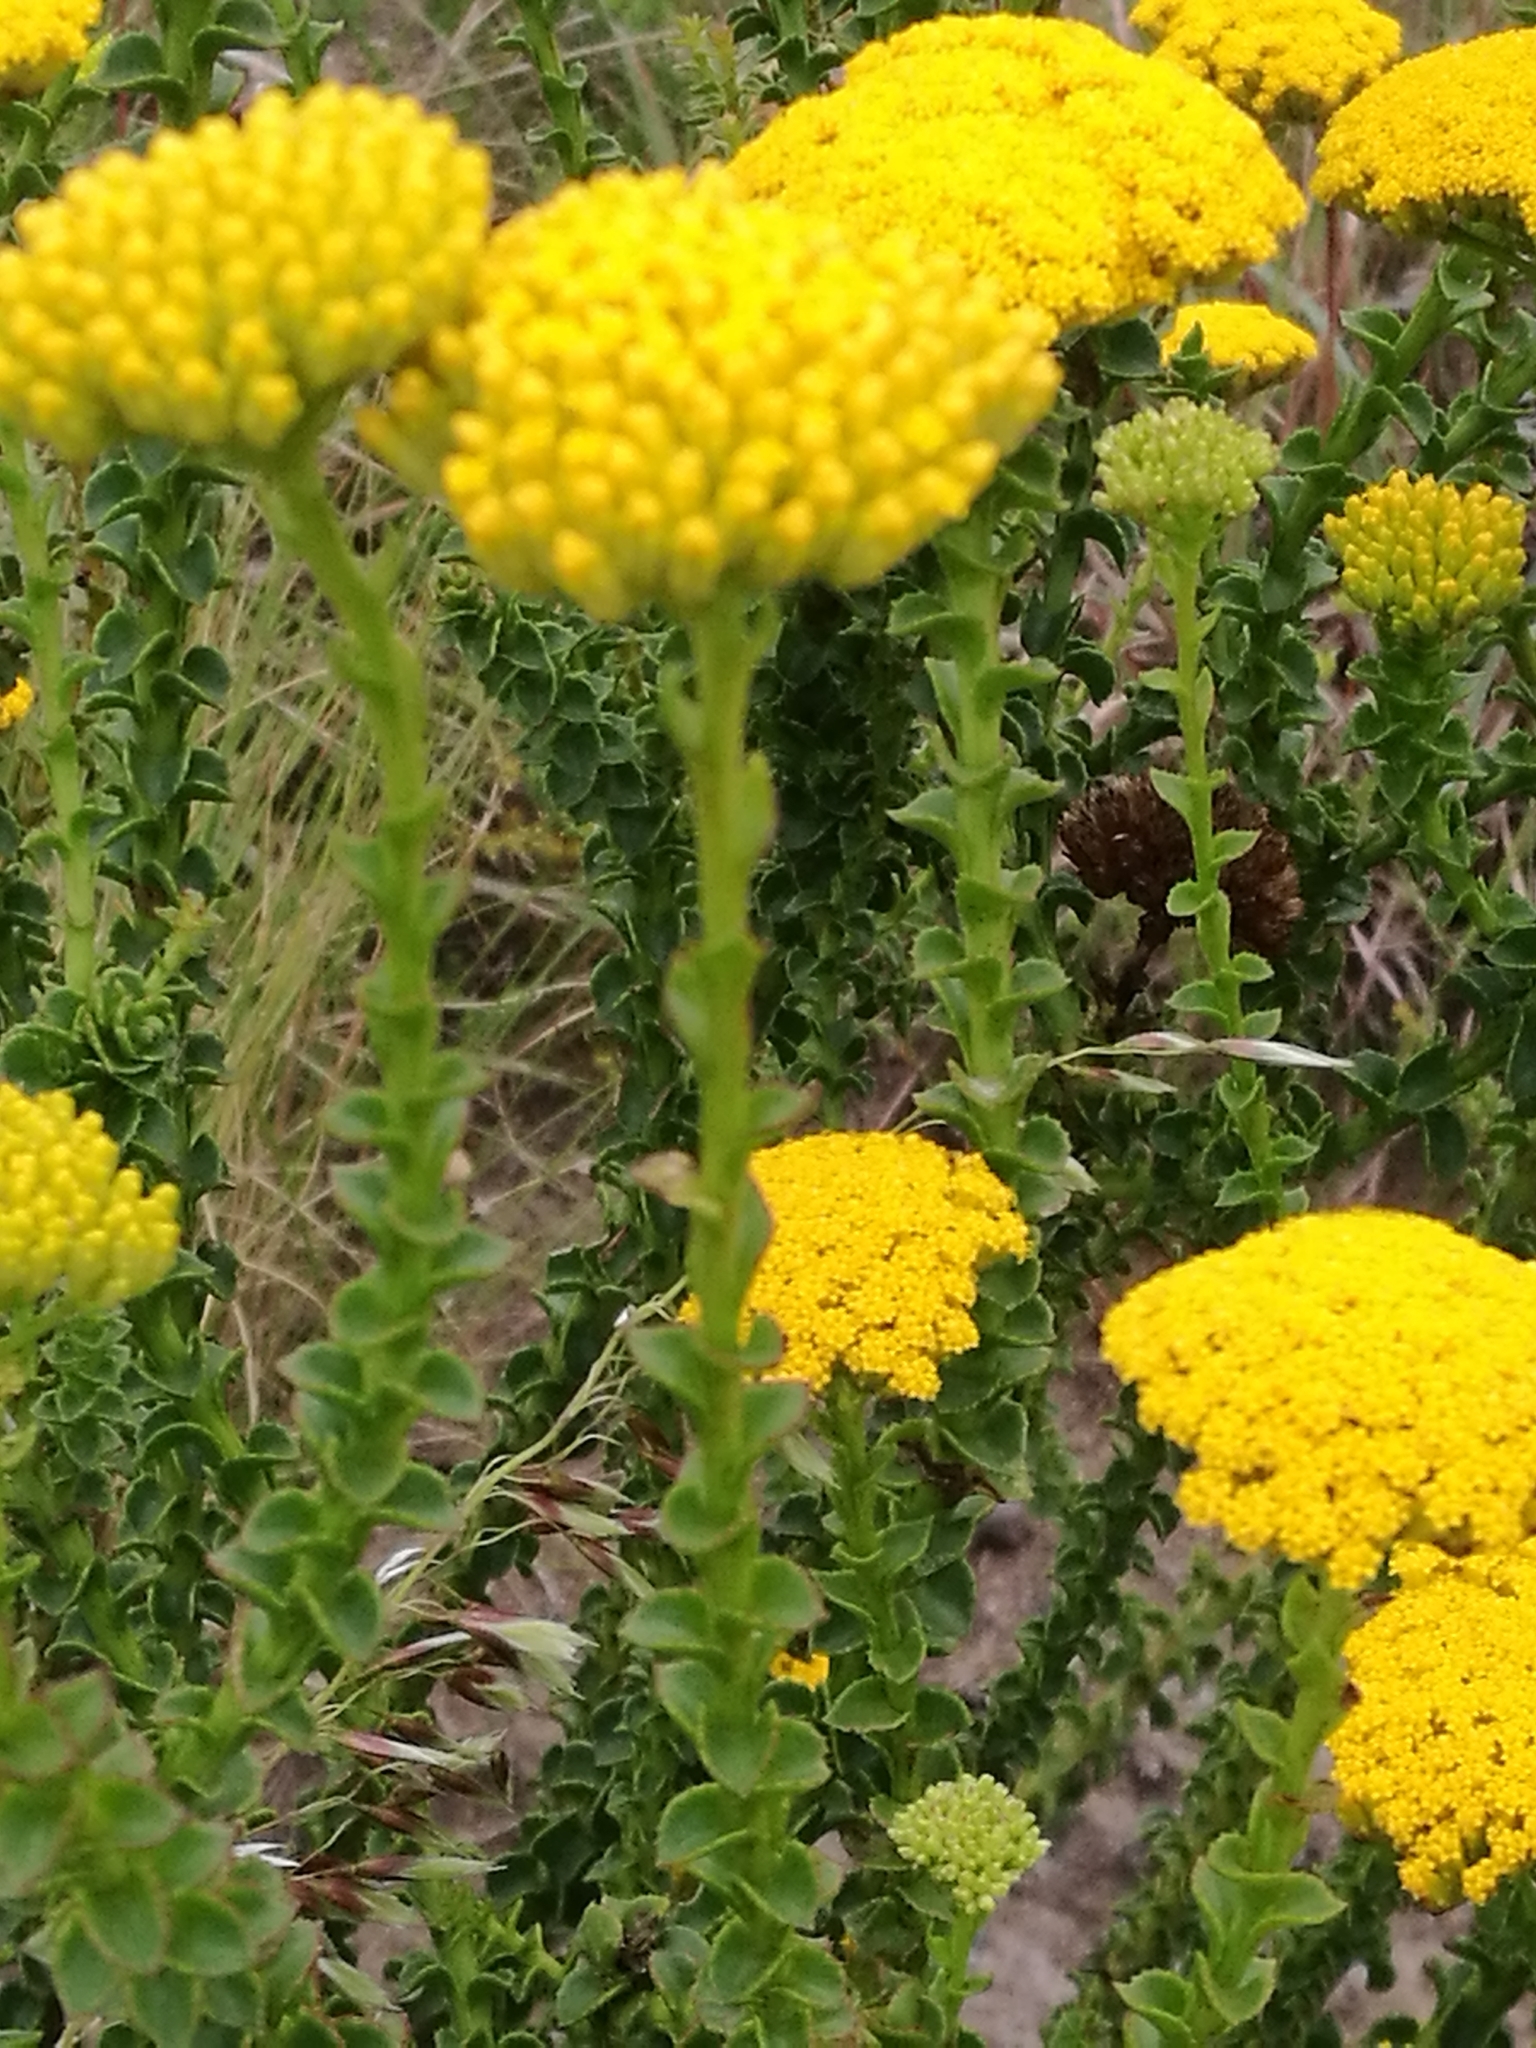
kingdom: Plantae
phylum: Tracheophyta
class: Magnoliopsida
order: Asterales
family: Asteraceae
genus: Athanasia
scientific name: Athanasia dentata
